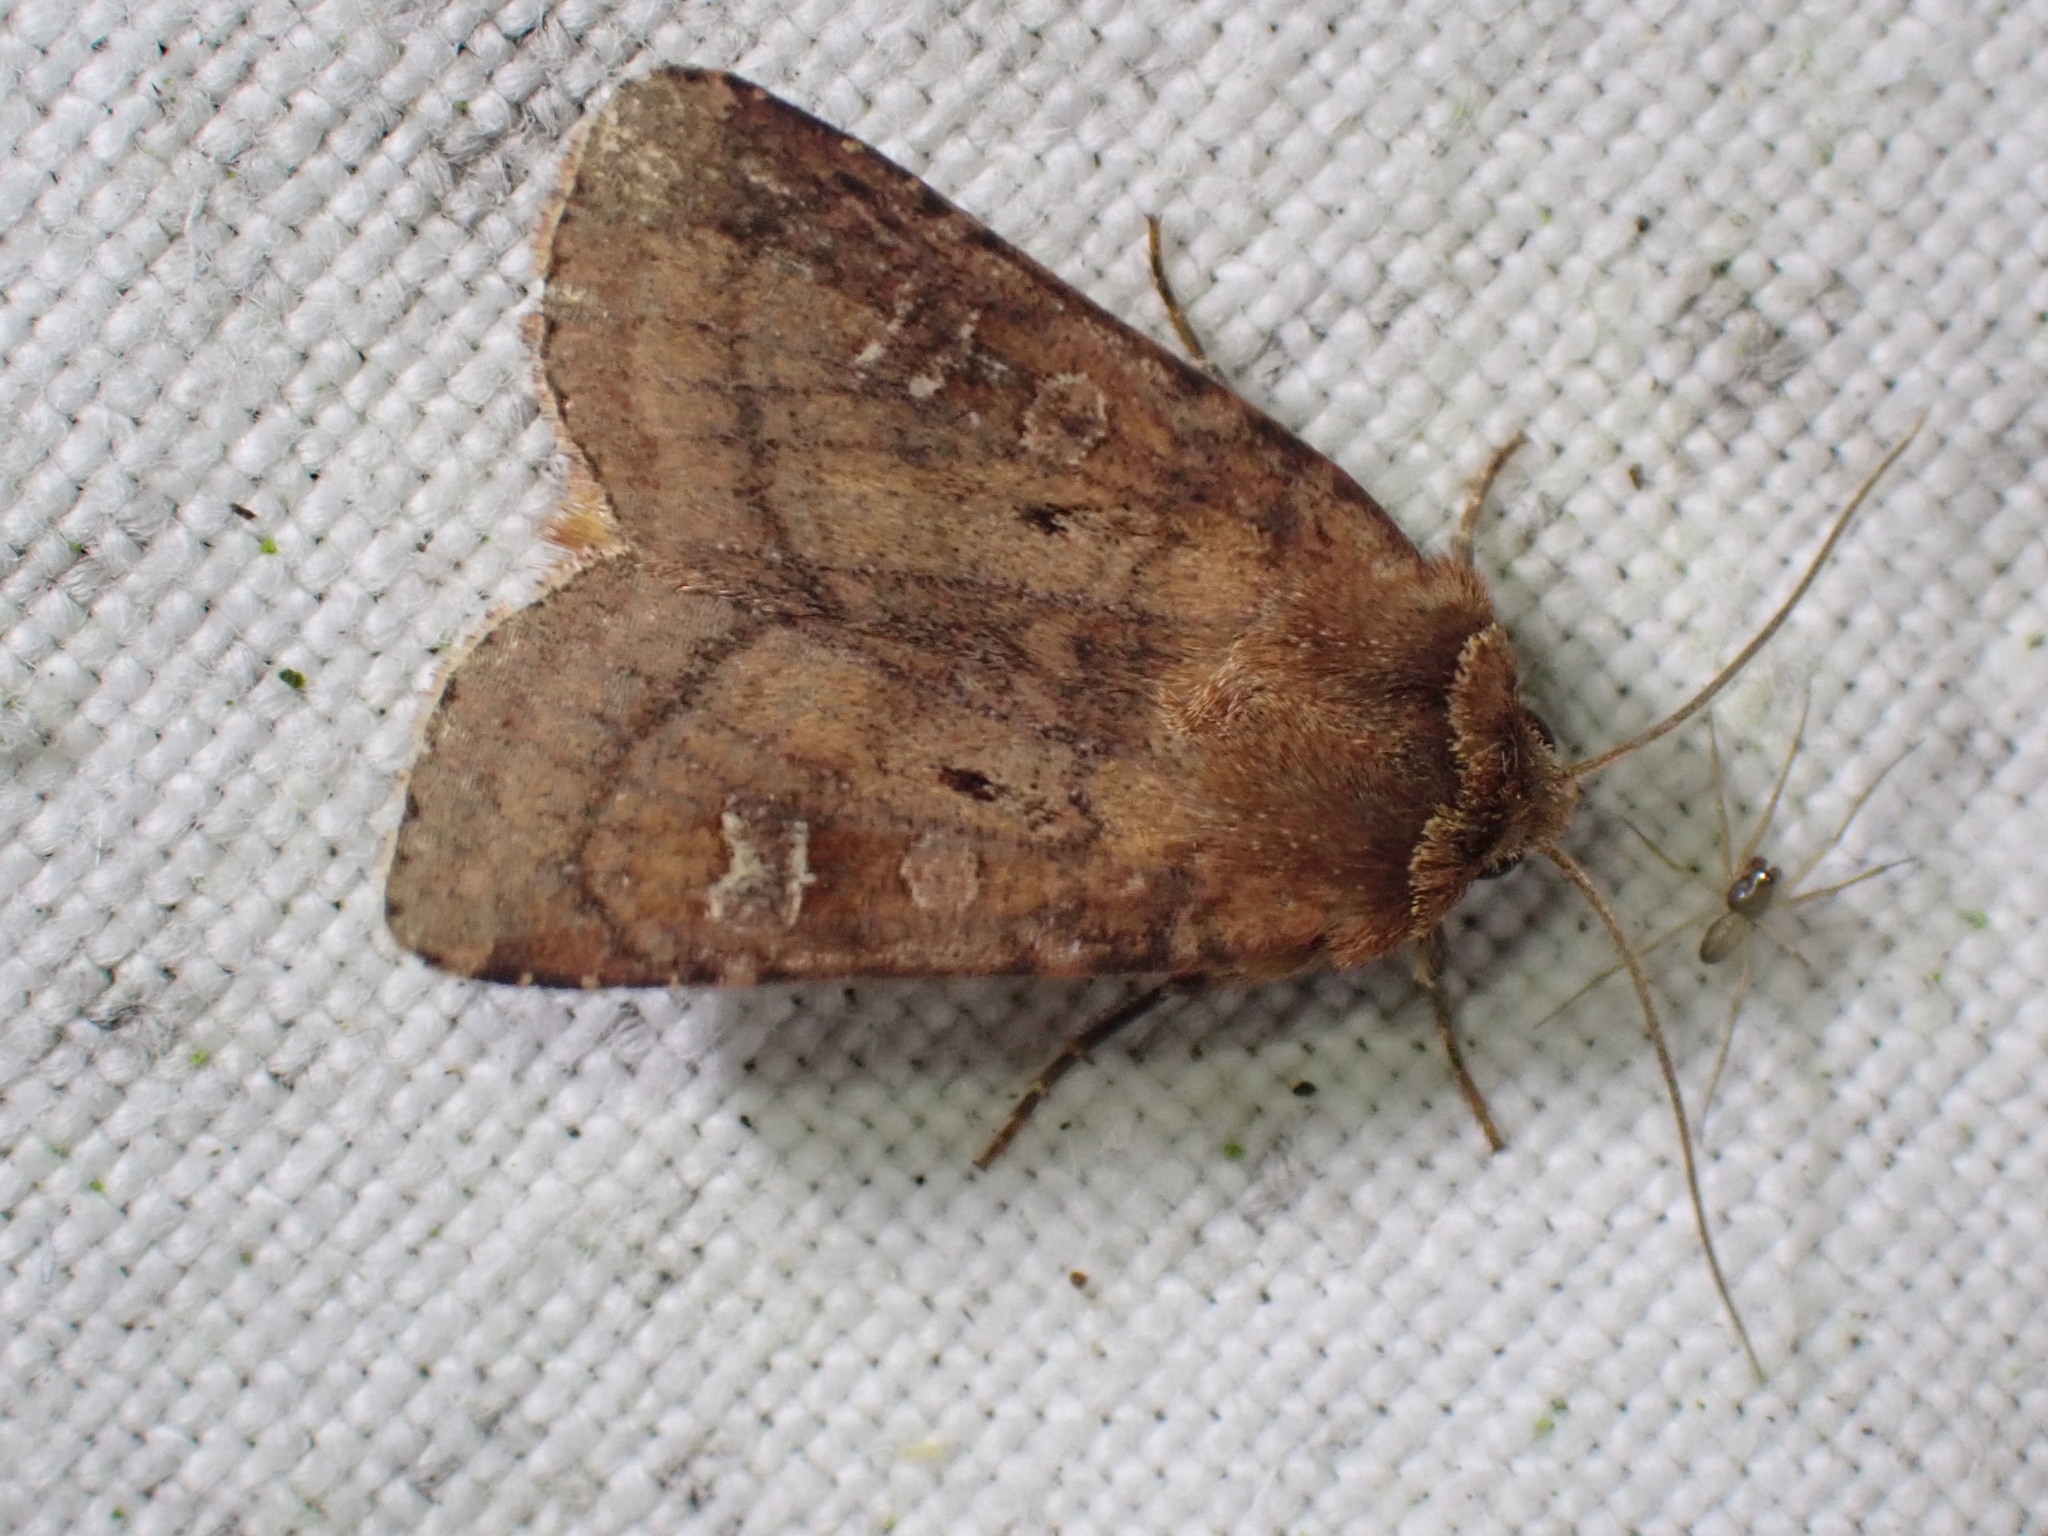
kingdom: Animalia
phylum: Arthropoda
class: Insecta
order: Lepidoptera
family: Noctuidae
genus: Diarsia
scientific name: Diarsia rubi
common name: Small square-spot
